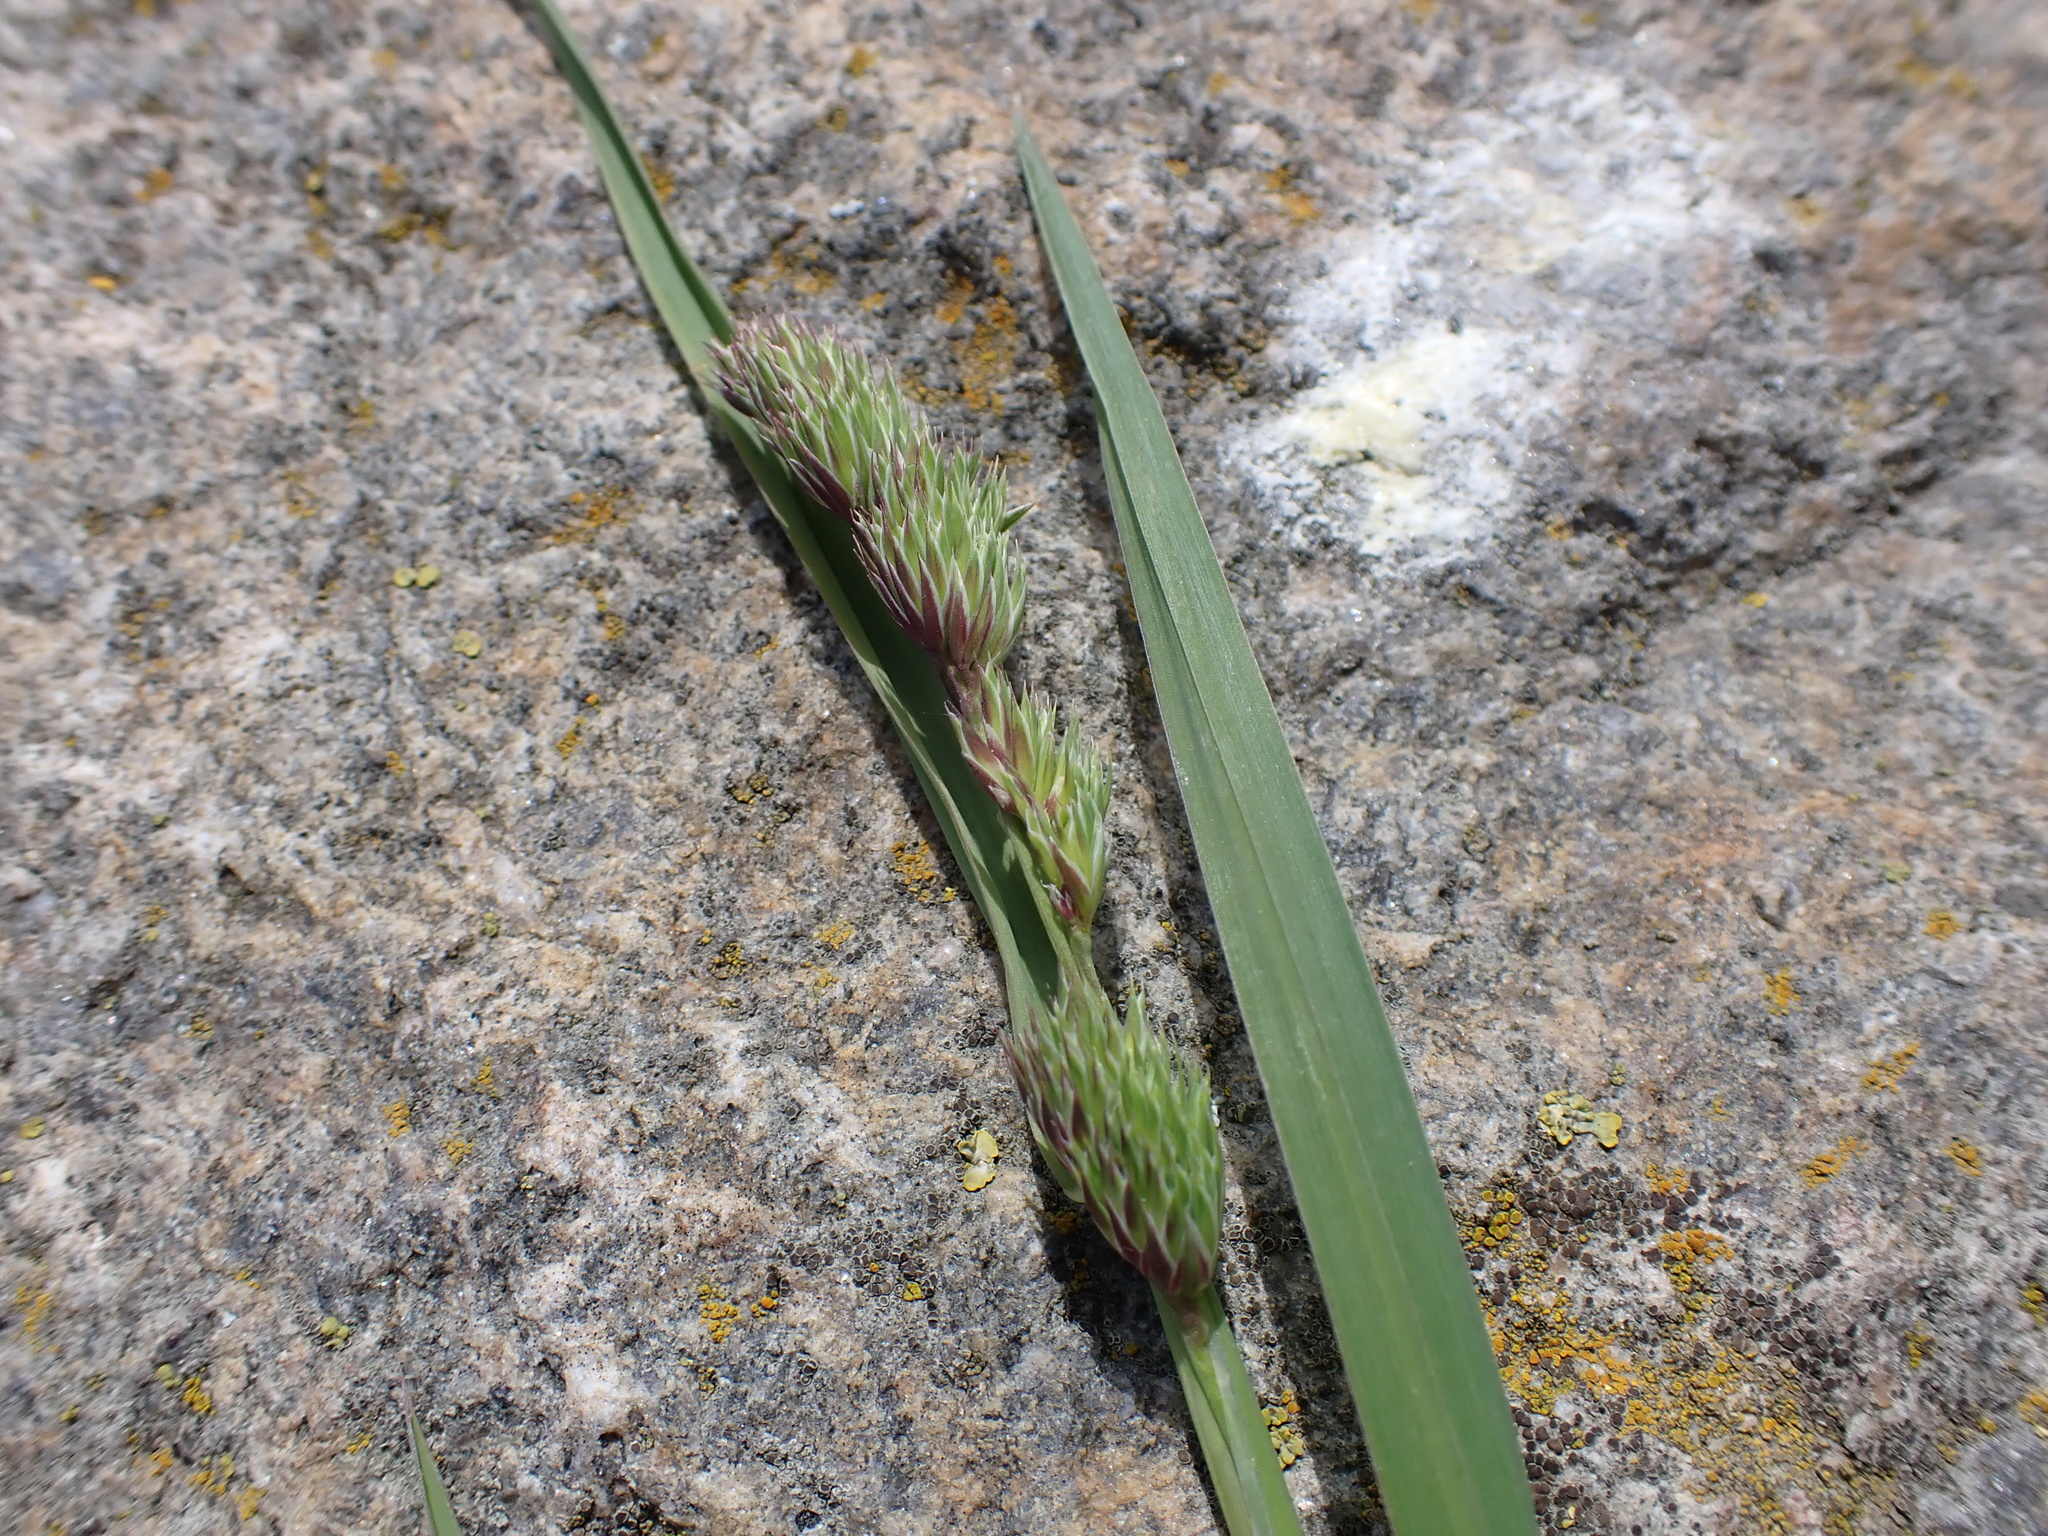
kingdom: Plantae
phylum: Tracheophyta
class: Liliopsida
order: Poales
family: Poaceae
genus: Dactylis
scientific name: Dactylis glomerata
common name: Orchardgrass
